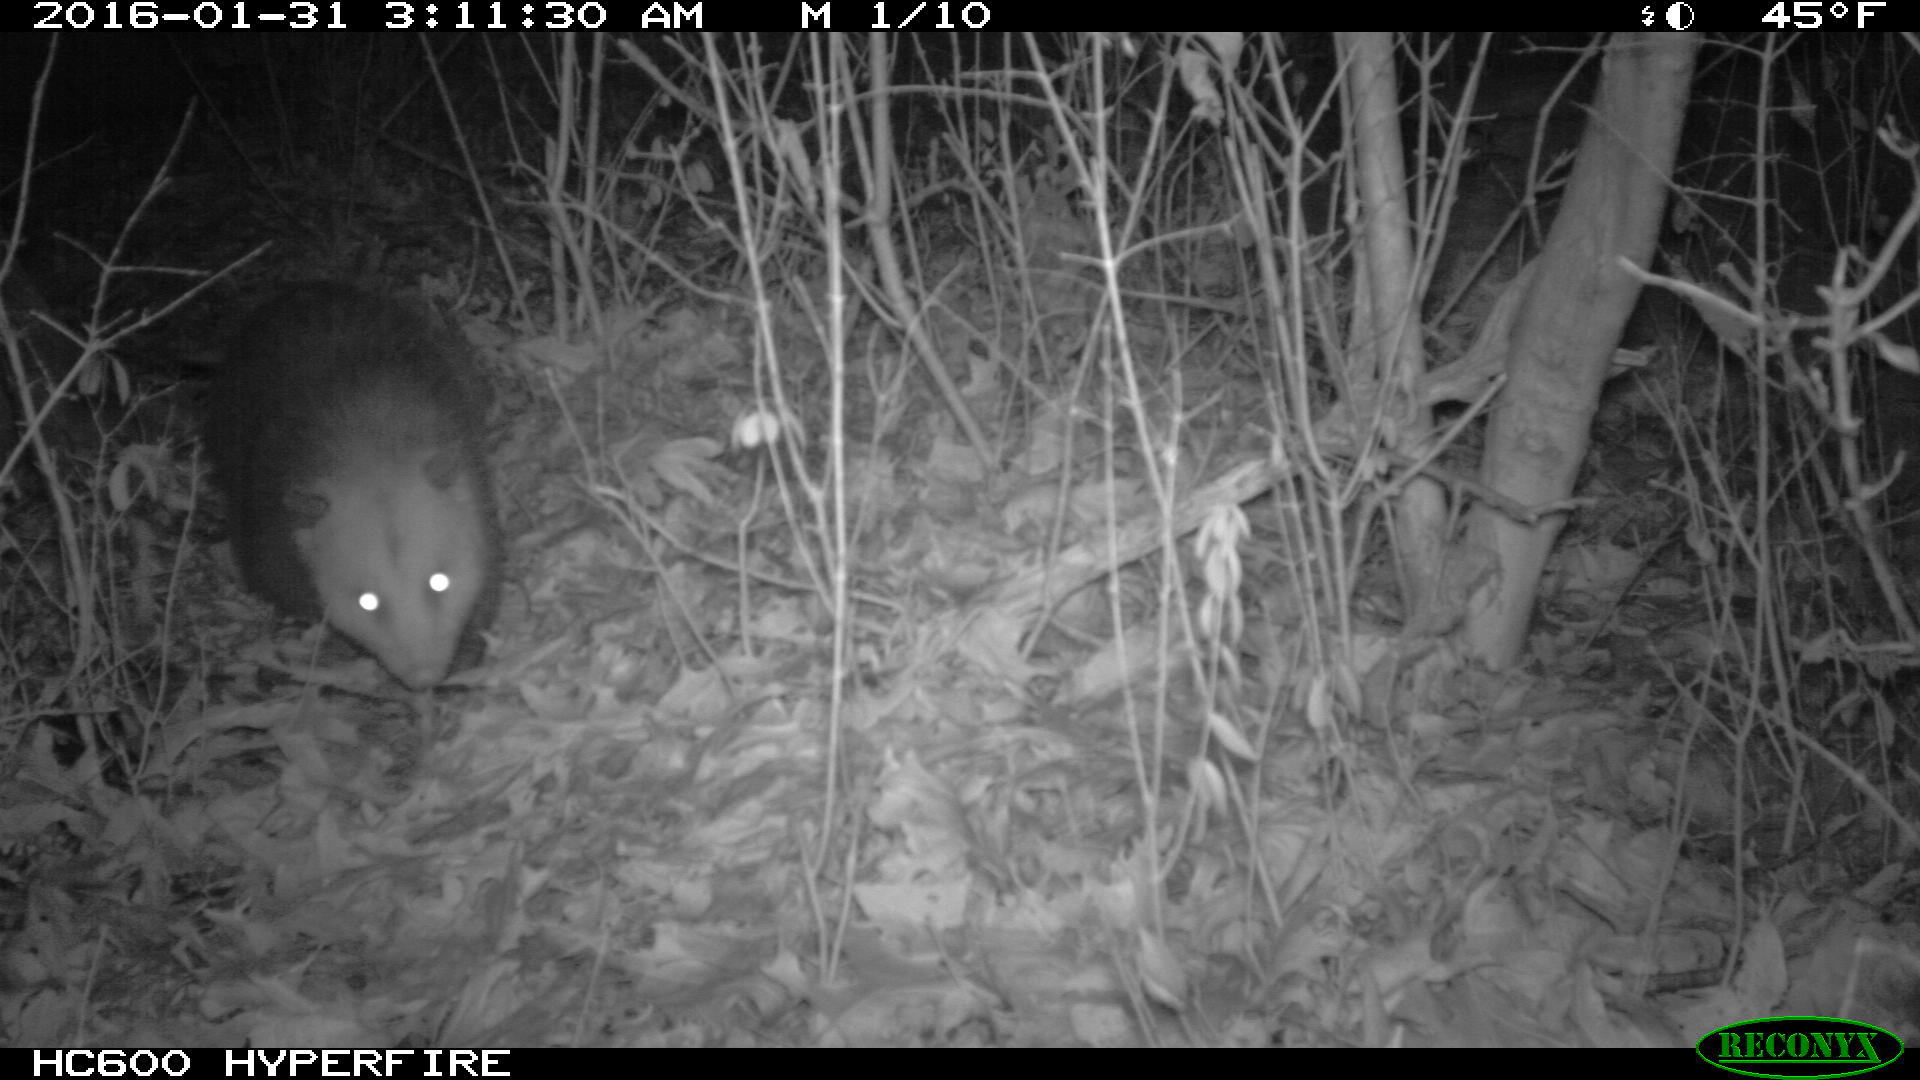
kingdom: Animalia
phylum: Chordata
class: Mammalia
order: Didelphimorphia
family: Didelphidae
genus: Didelphis
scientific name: Didelphis virginiana
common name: Virginia opossum
